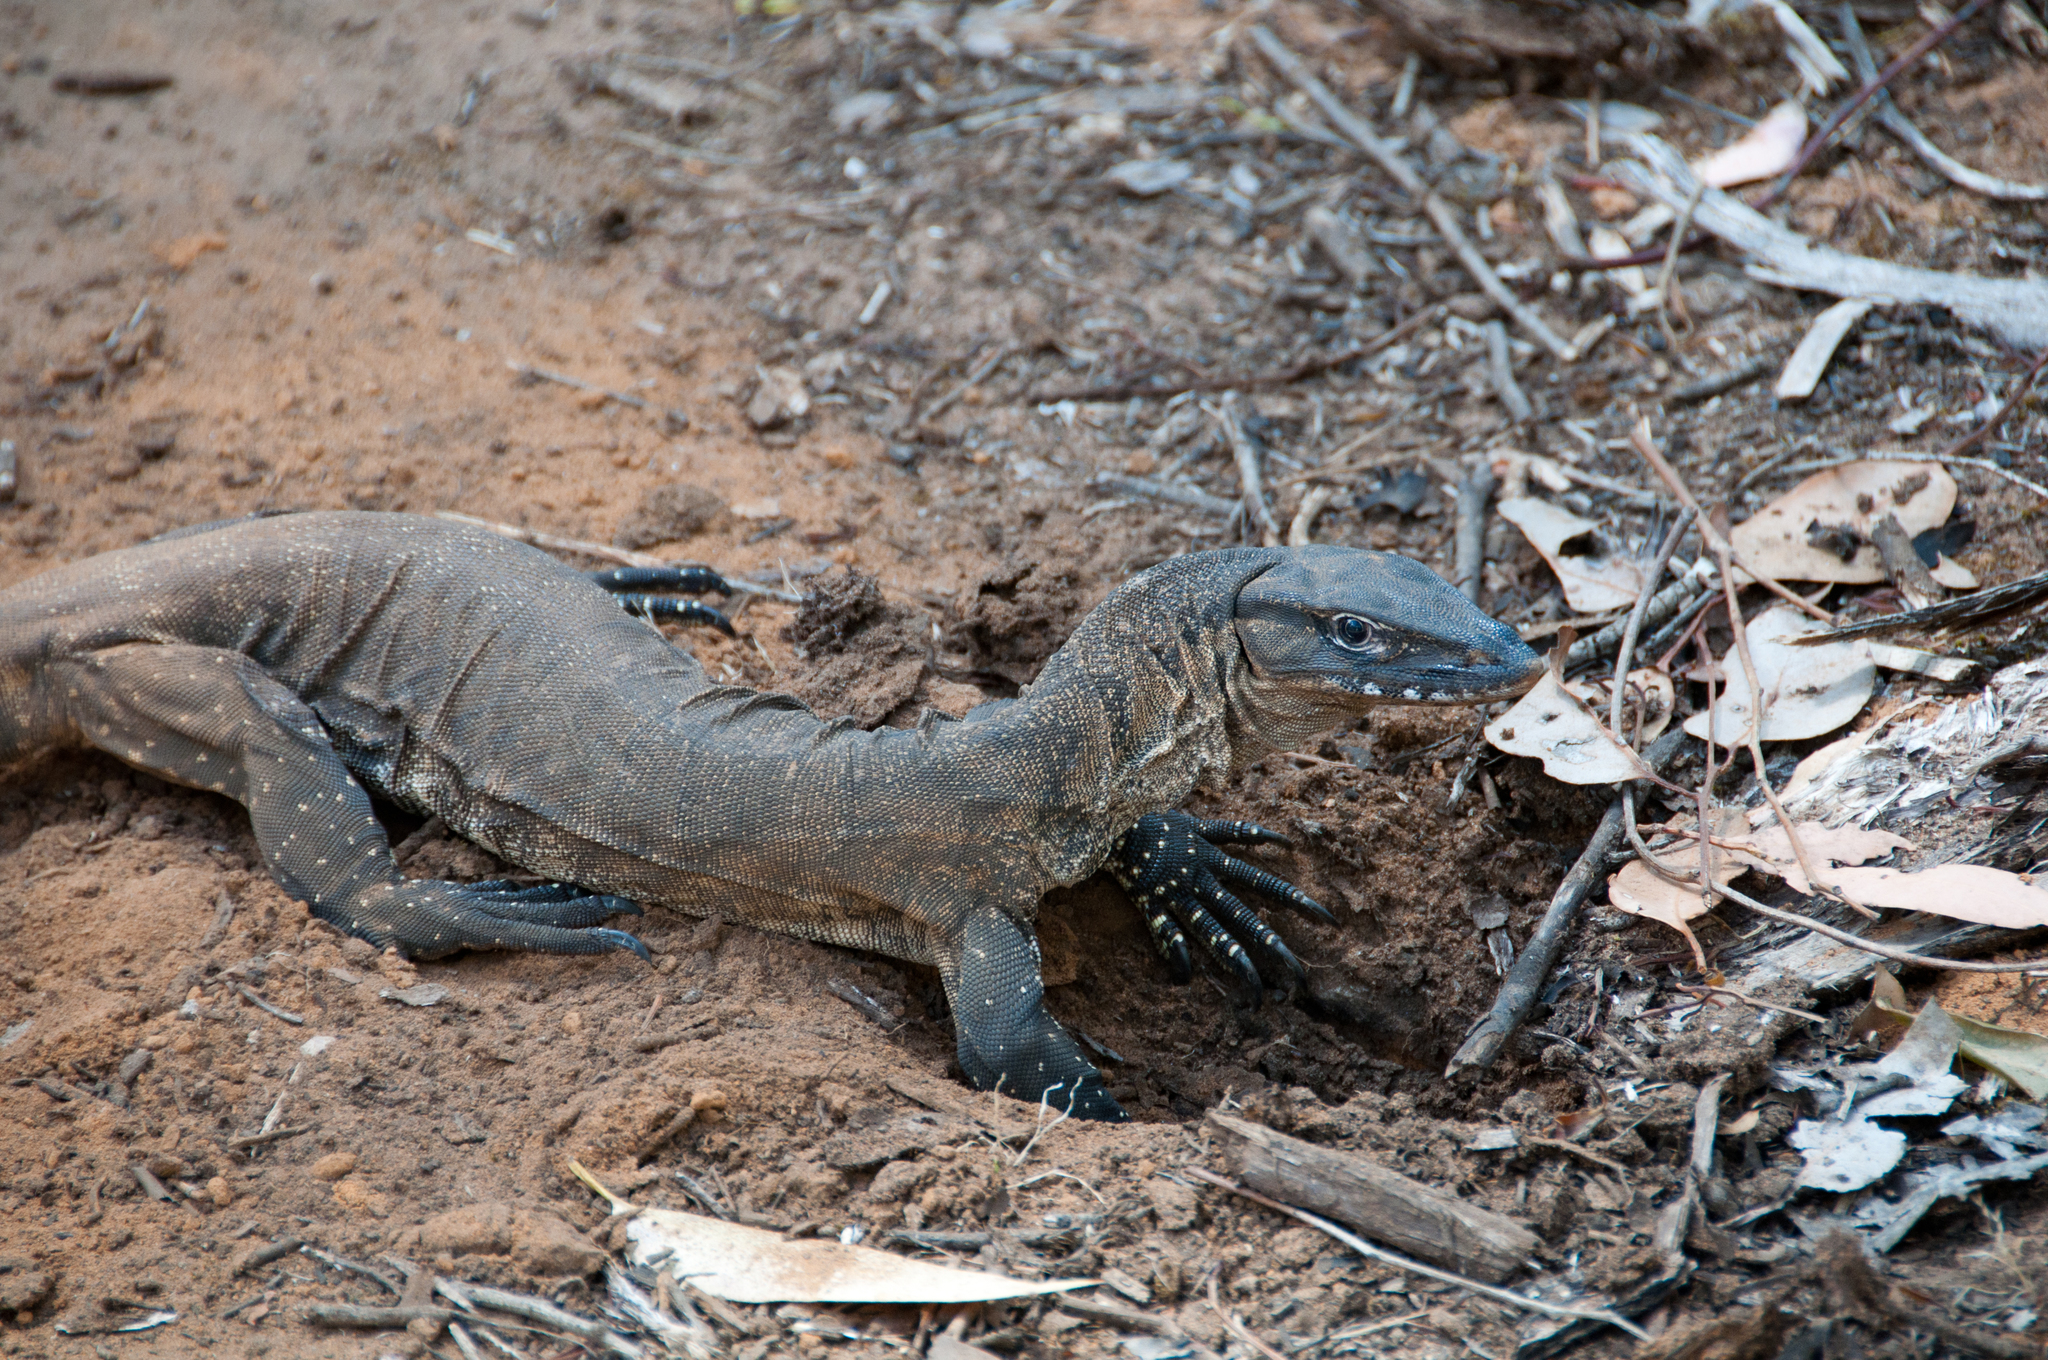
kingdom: Animalia
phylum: Chordata
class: Squamata
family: Varanidae
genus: Varanus
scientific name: Varanus rosenbergi
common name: Heath monitor
